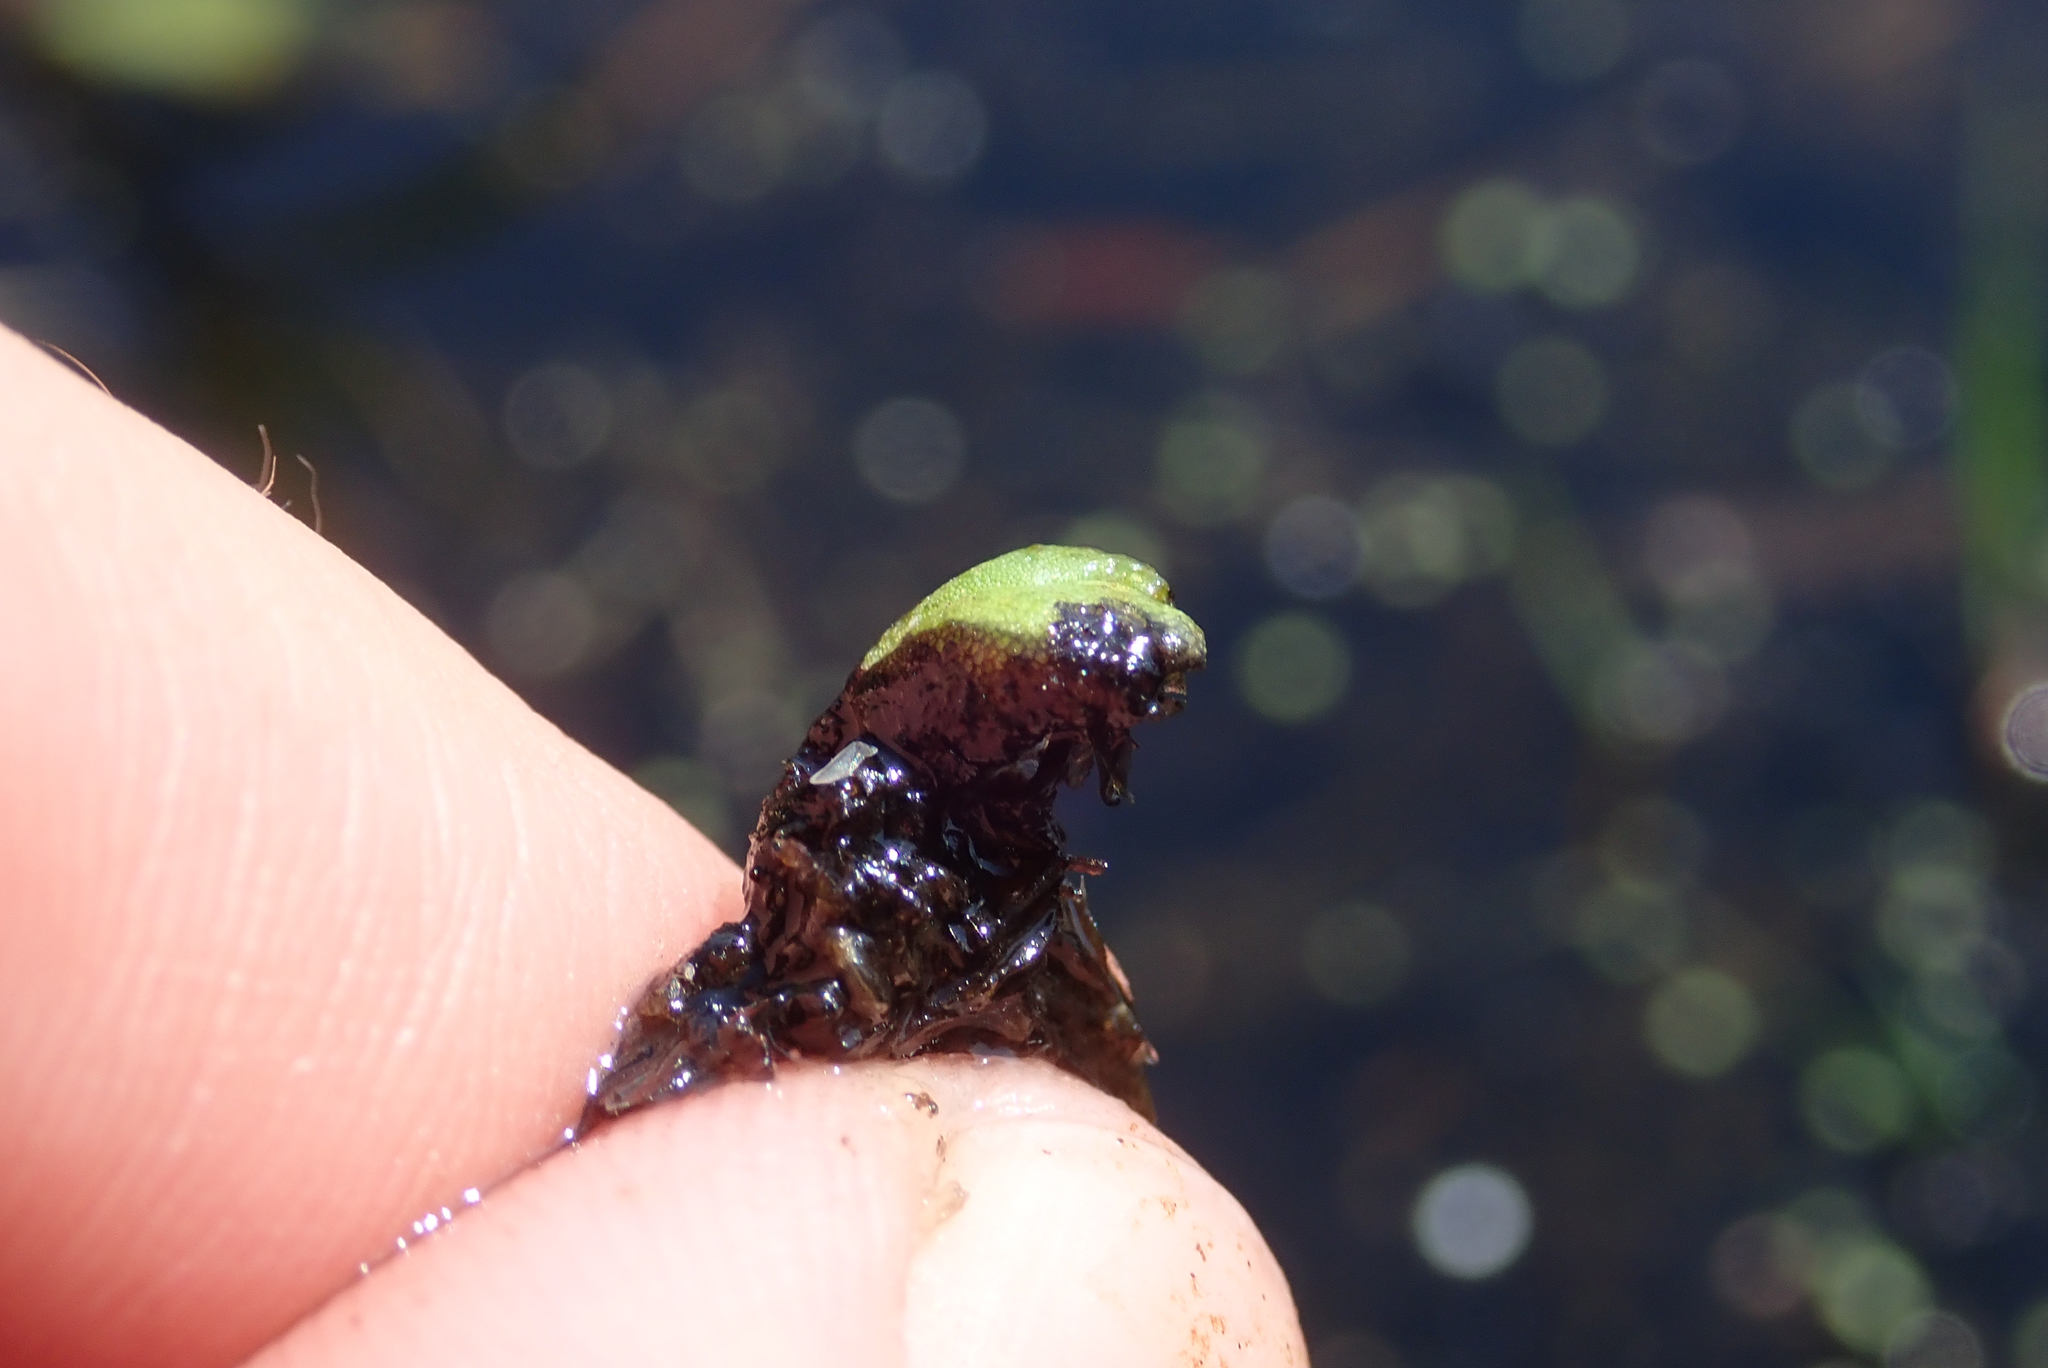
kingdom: Plantae
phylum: Marchantiophyta
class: Marchantiopsida
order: Marchantiales
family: Ricciaceae
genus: Ricciocarpos
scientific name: Ricciocarpos natans
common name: Purple-fringed liverwort
